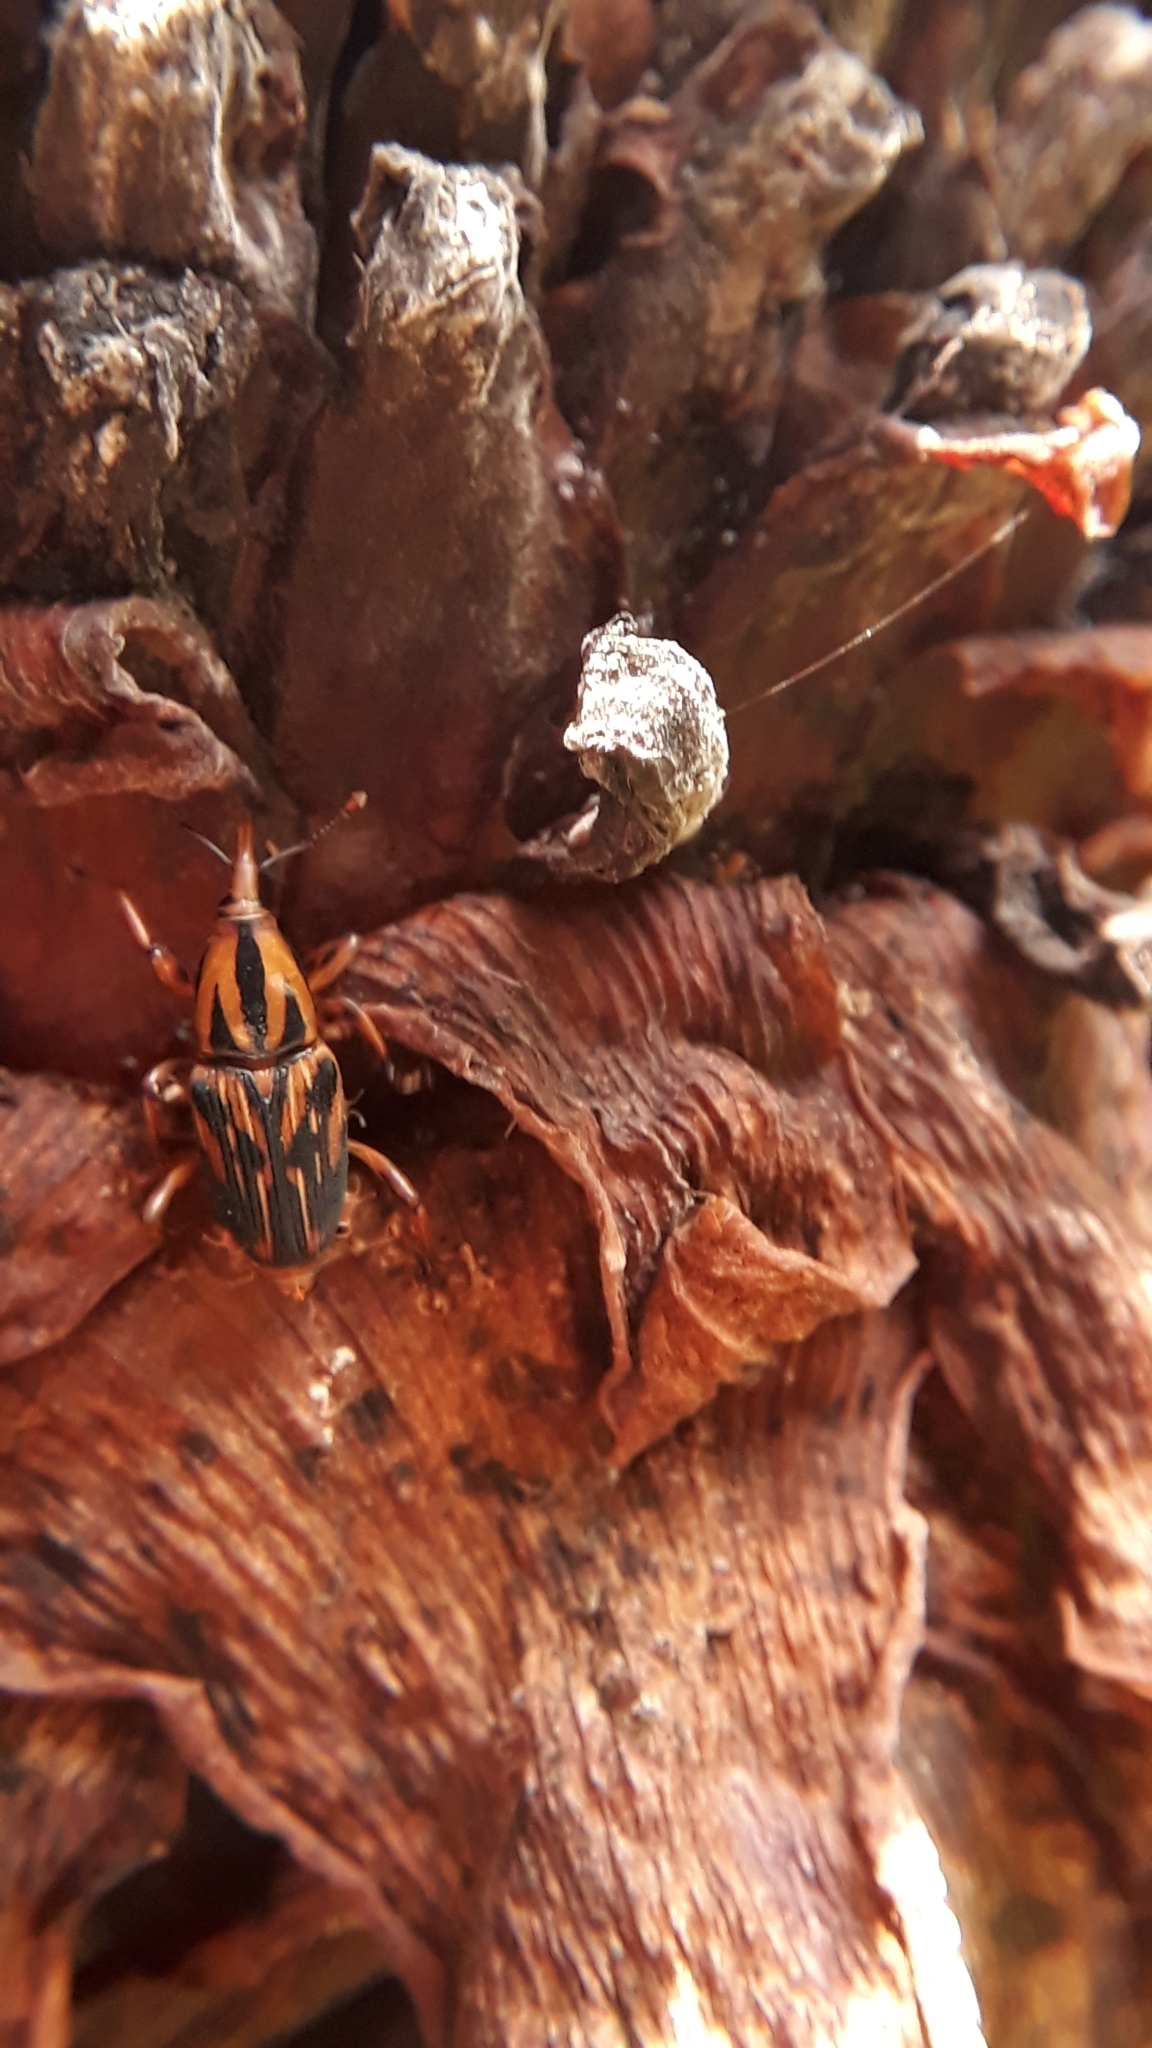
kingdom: Animalia
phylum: Arthropoda
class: Insecta
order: Coleoptera
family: Dryophthoridae
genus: Metamasius
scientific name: Metamasius hemipterus
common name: Weevil
